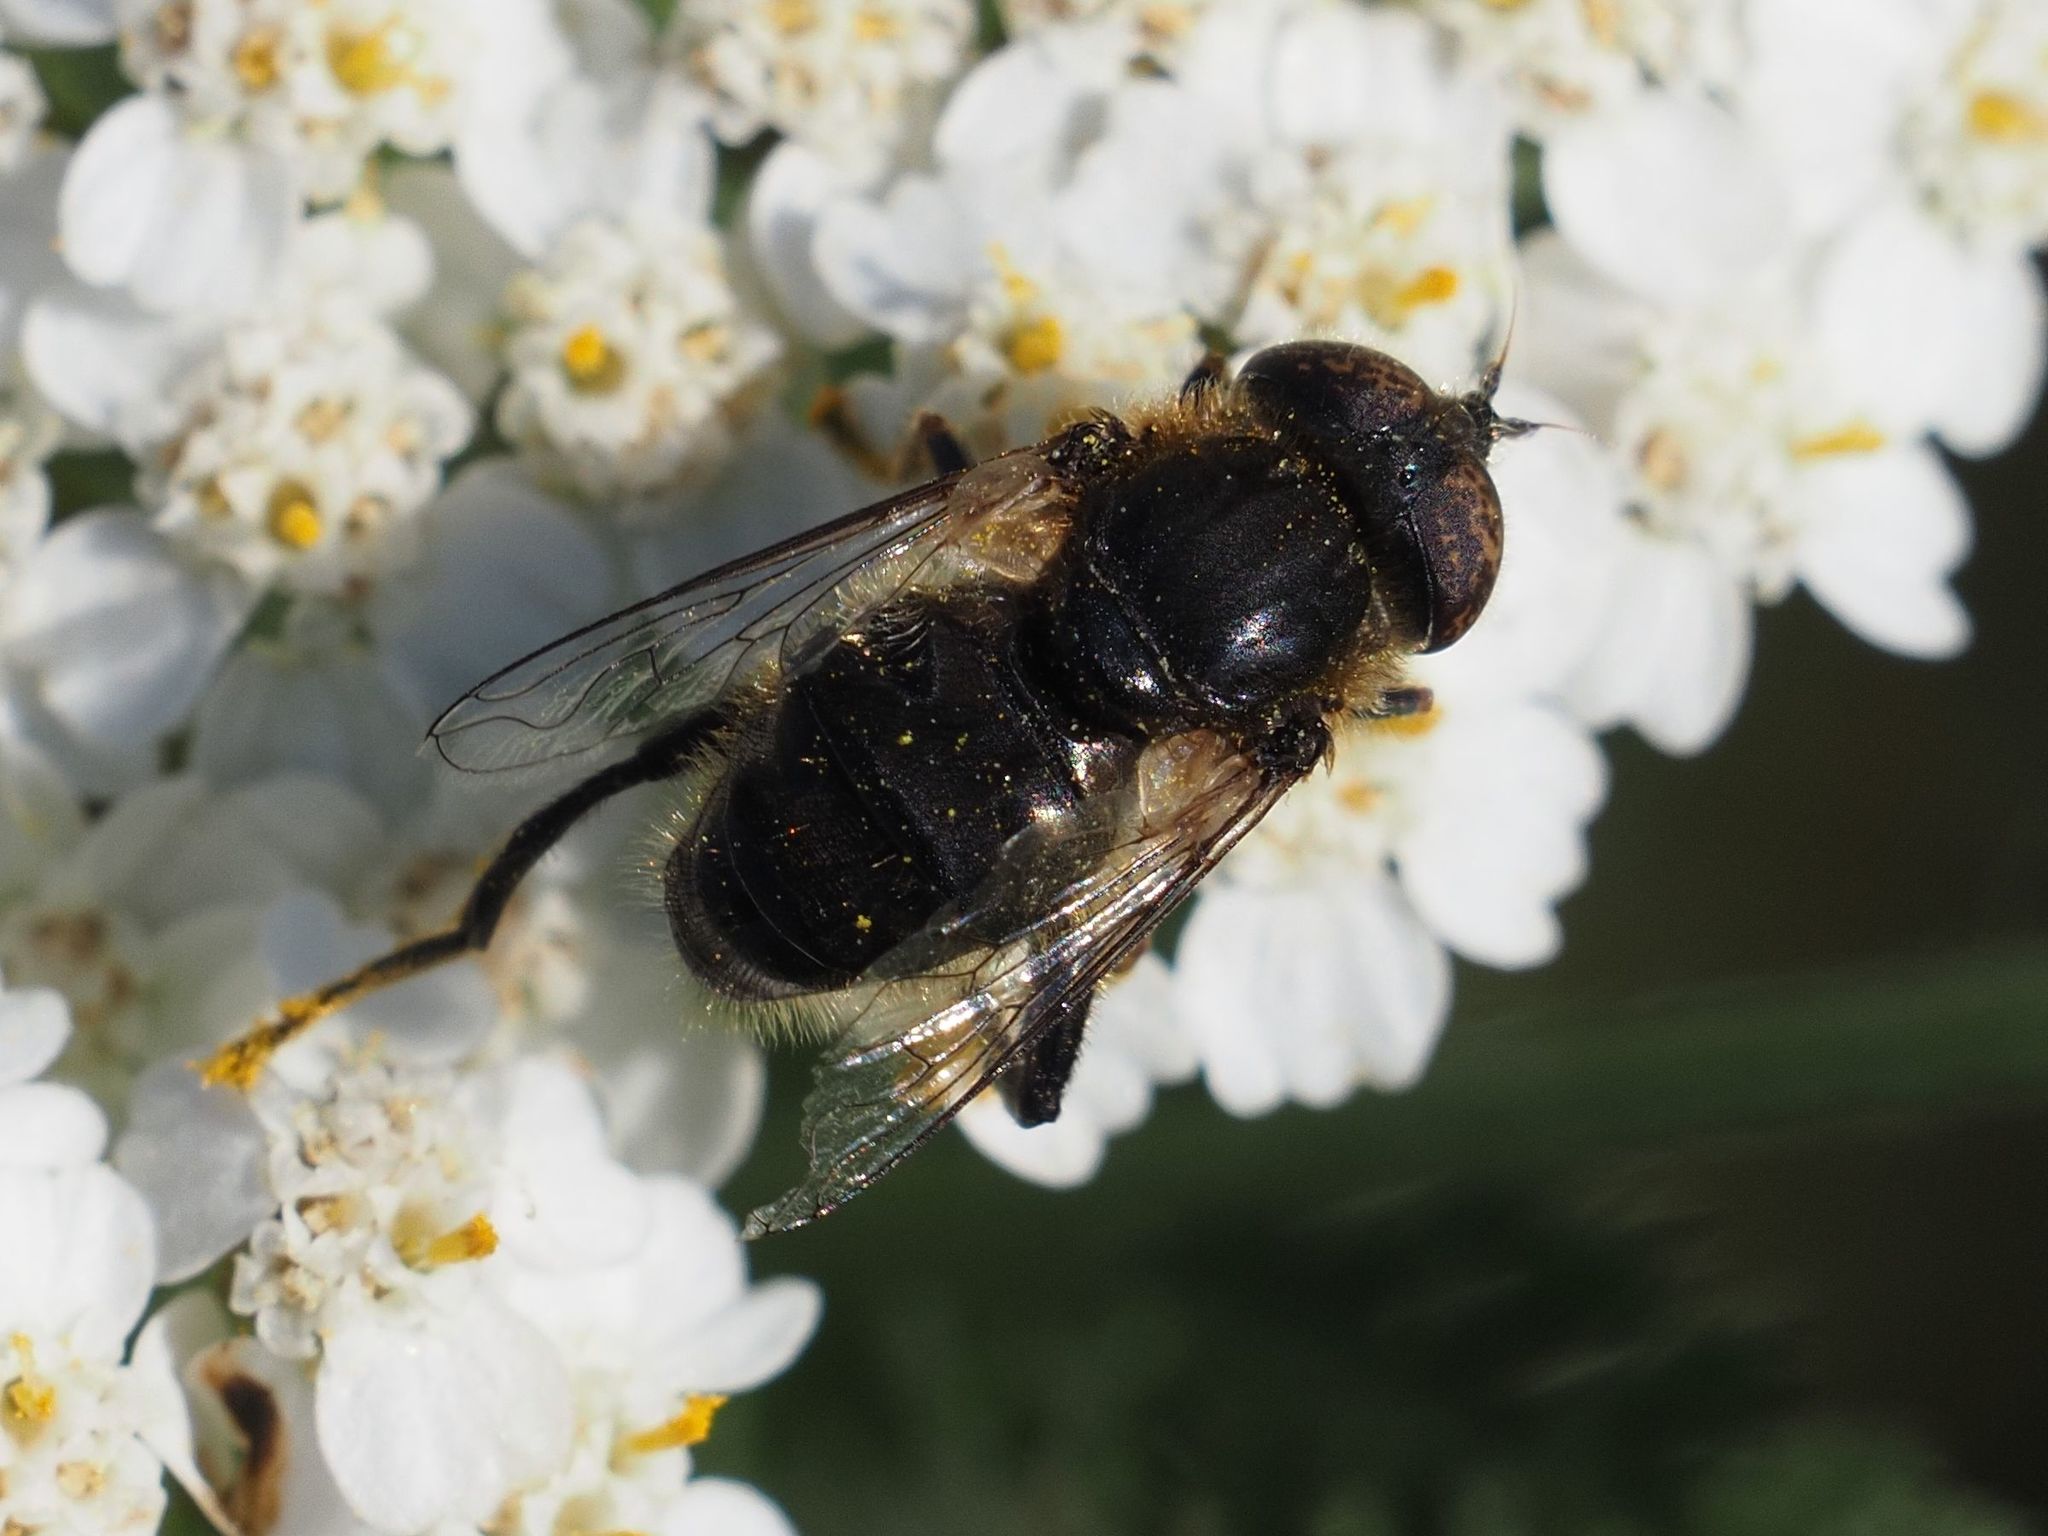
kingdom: Animalia
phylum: Arthropoda
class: Insecta
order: Diptera
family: Syrphidae
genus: Eristalinus
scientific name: Eristalinus sepulchralis
